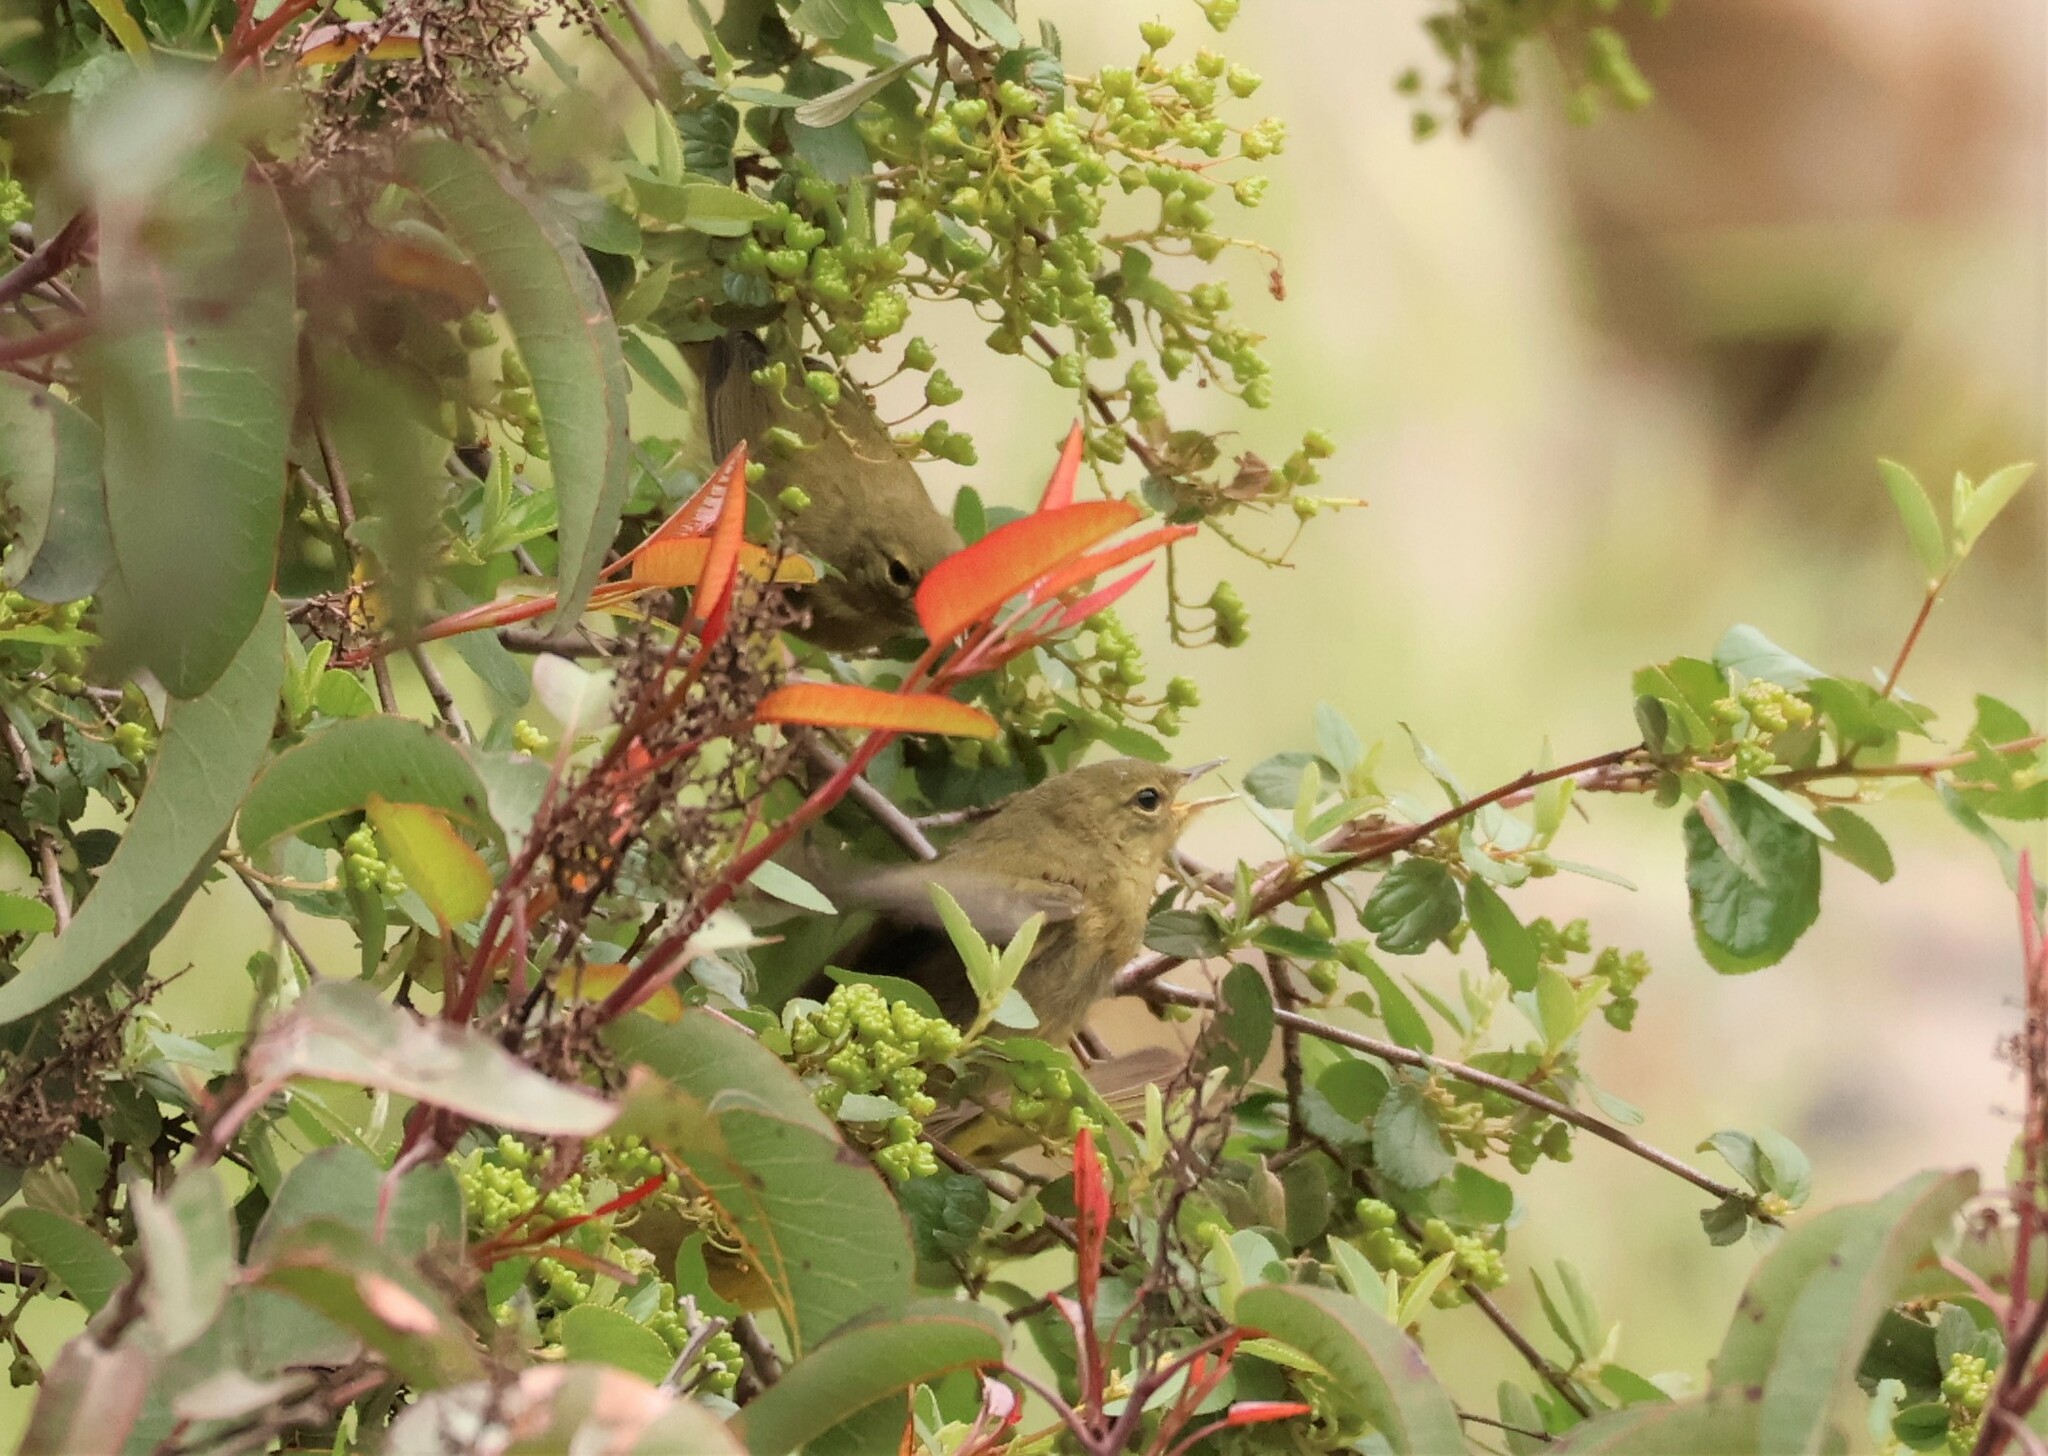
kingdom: Animalia
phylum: Chordata
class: Aves
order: Passeriformes
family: Parulidae
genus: Leiothlypis
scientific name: Leiothlypis celata
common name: Orange-crowned warbler
